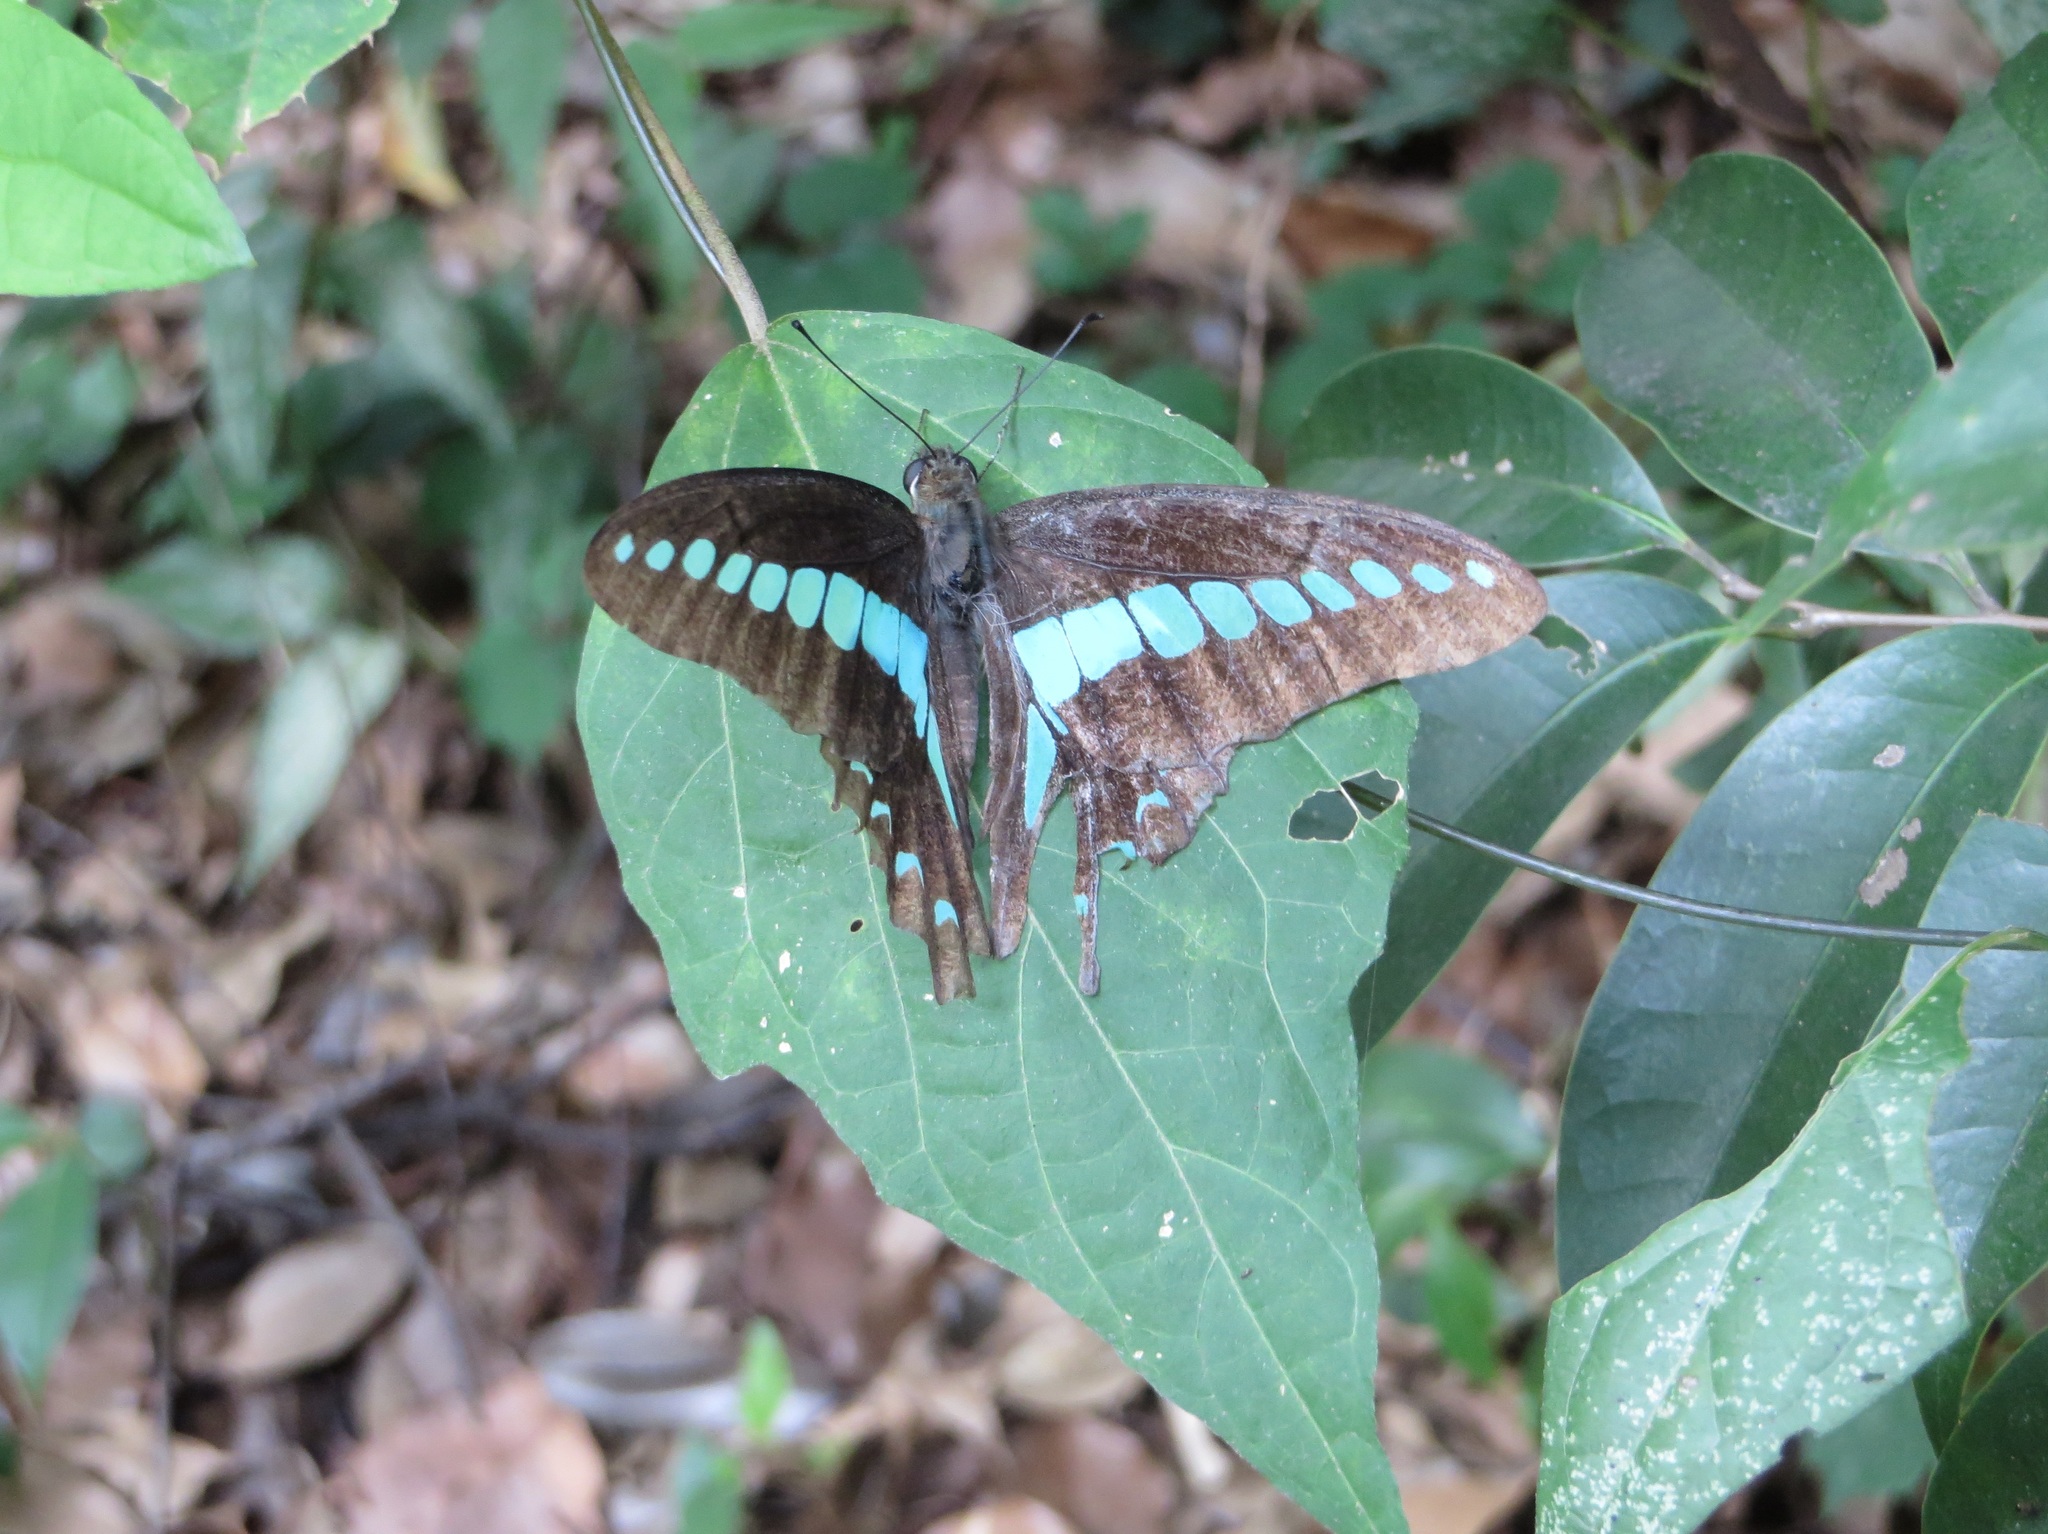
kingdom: Fungi
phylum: Ascomycota
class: Sordariomycetes
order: Microascales
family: Microascaceae
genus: Graphium
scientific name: Graphium sarpedon
